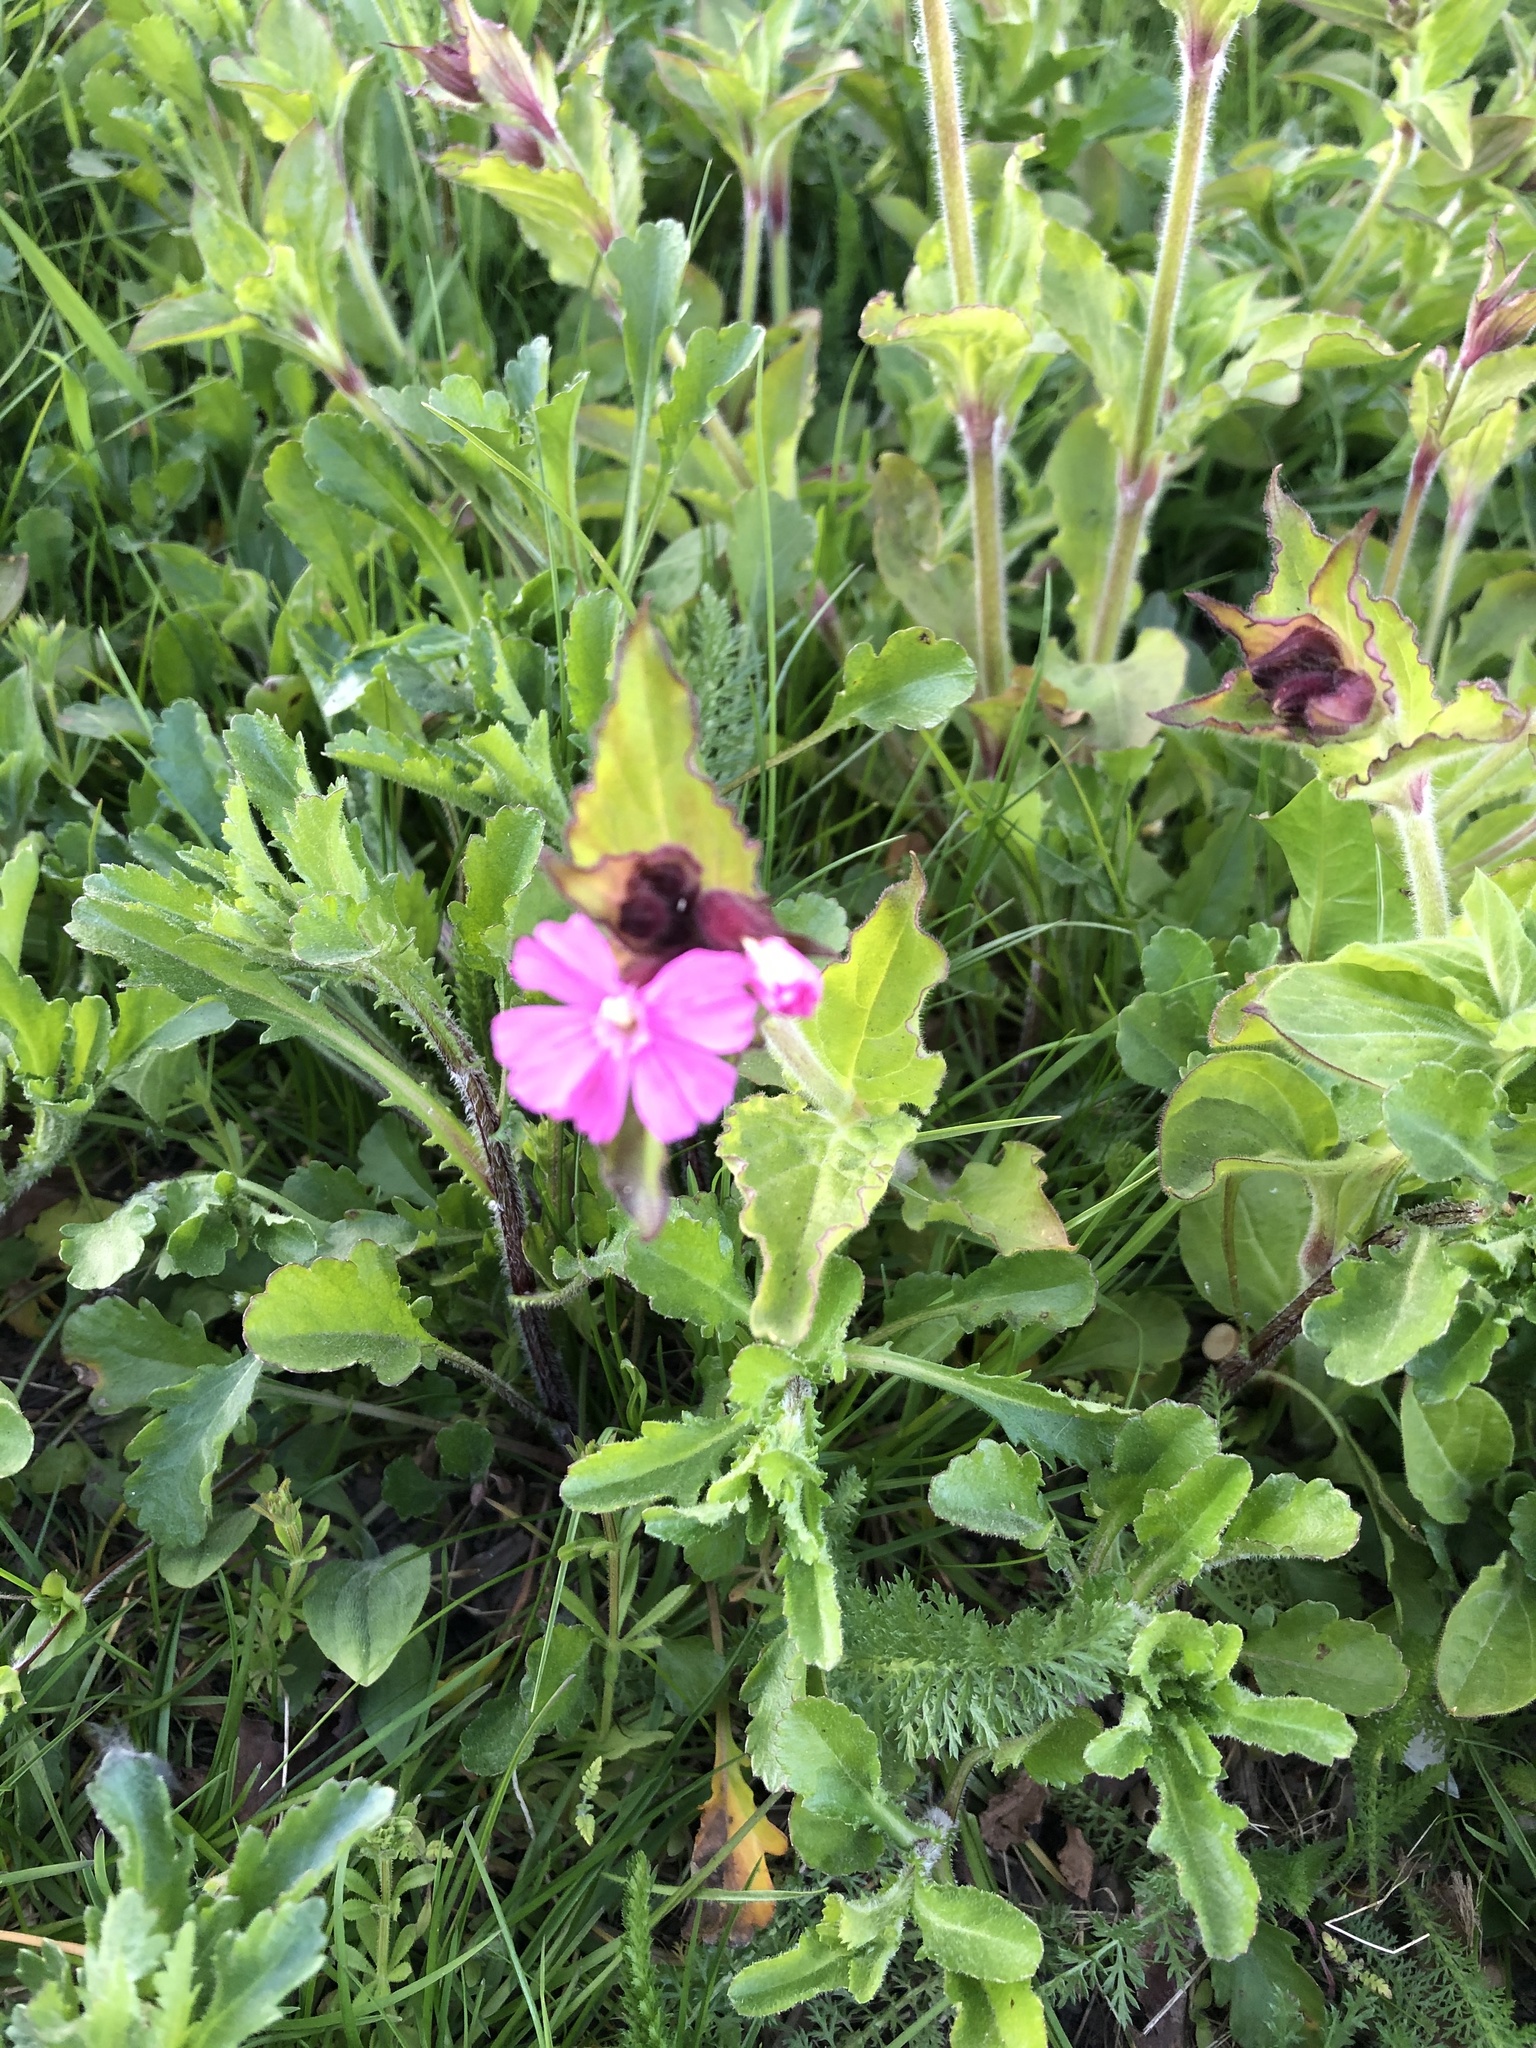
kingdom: Plantae
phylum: Tracheophyta
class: Magnoliopsida
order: Caryophyllales
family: Caryophyllaceae
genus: Silene
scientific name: Silene dioica
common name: Red campion
